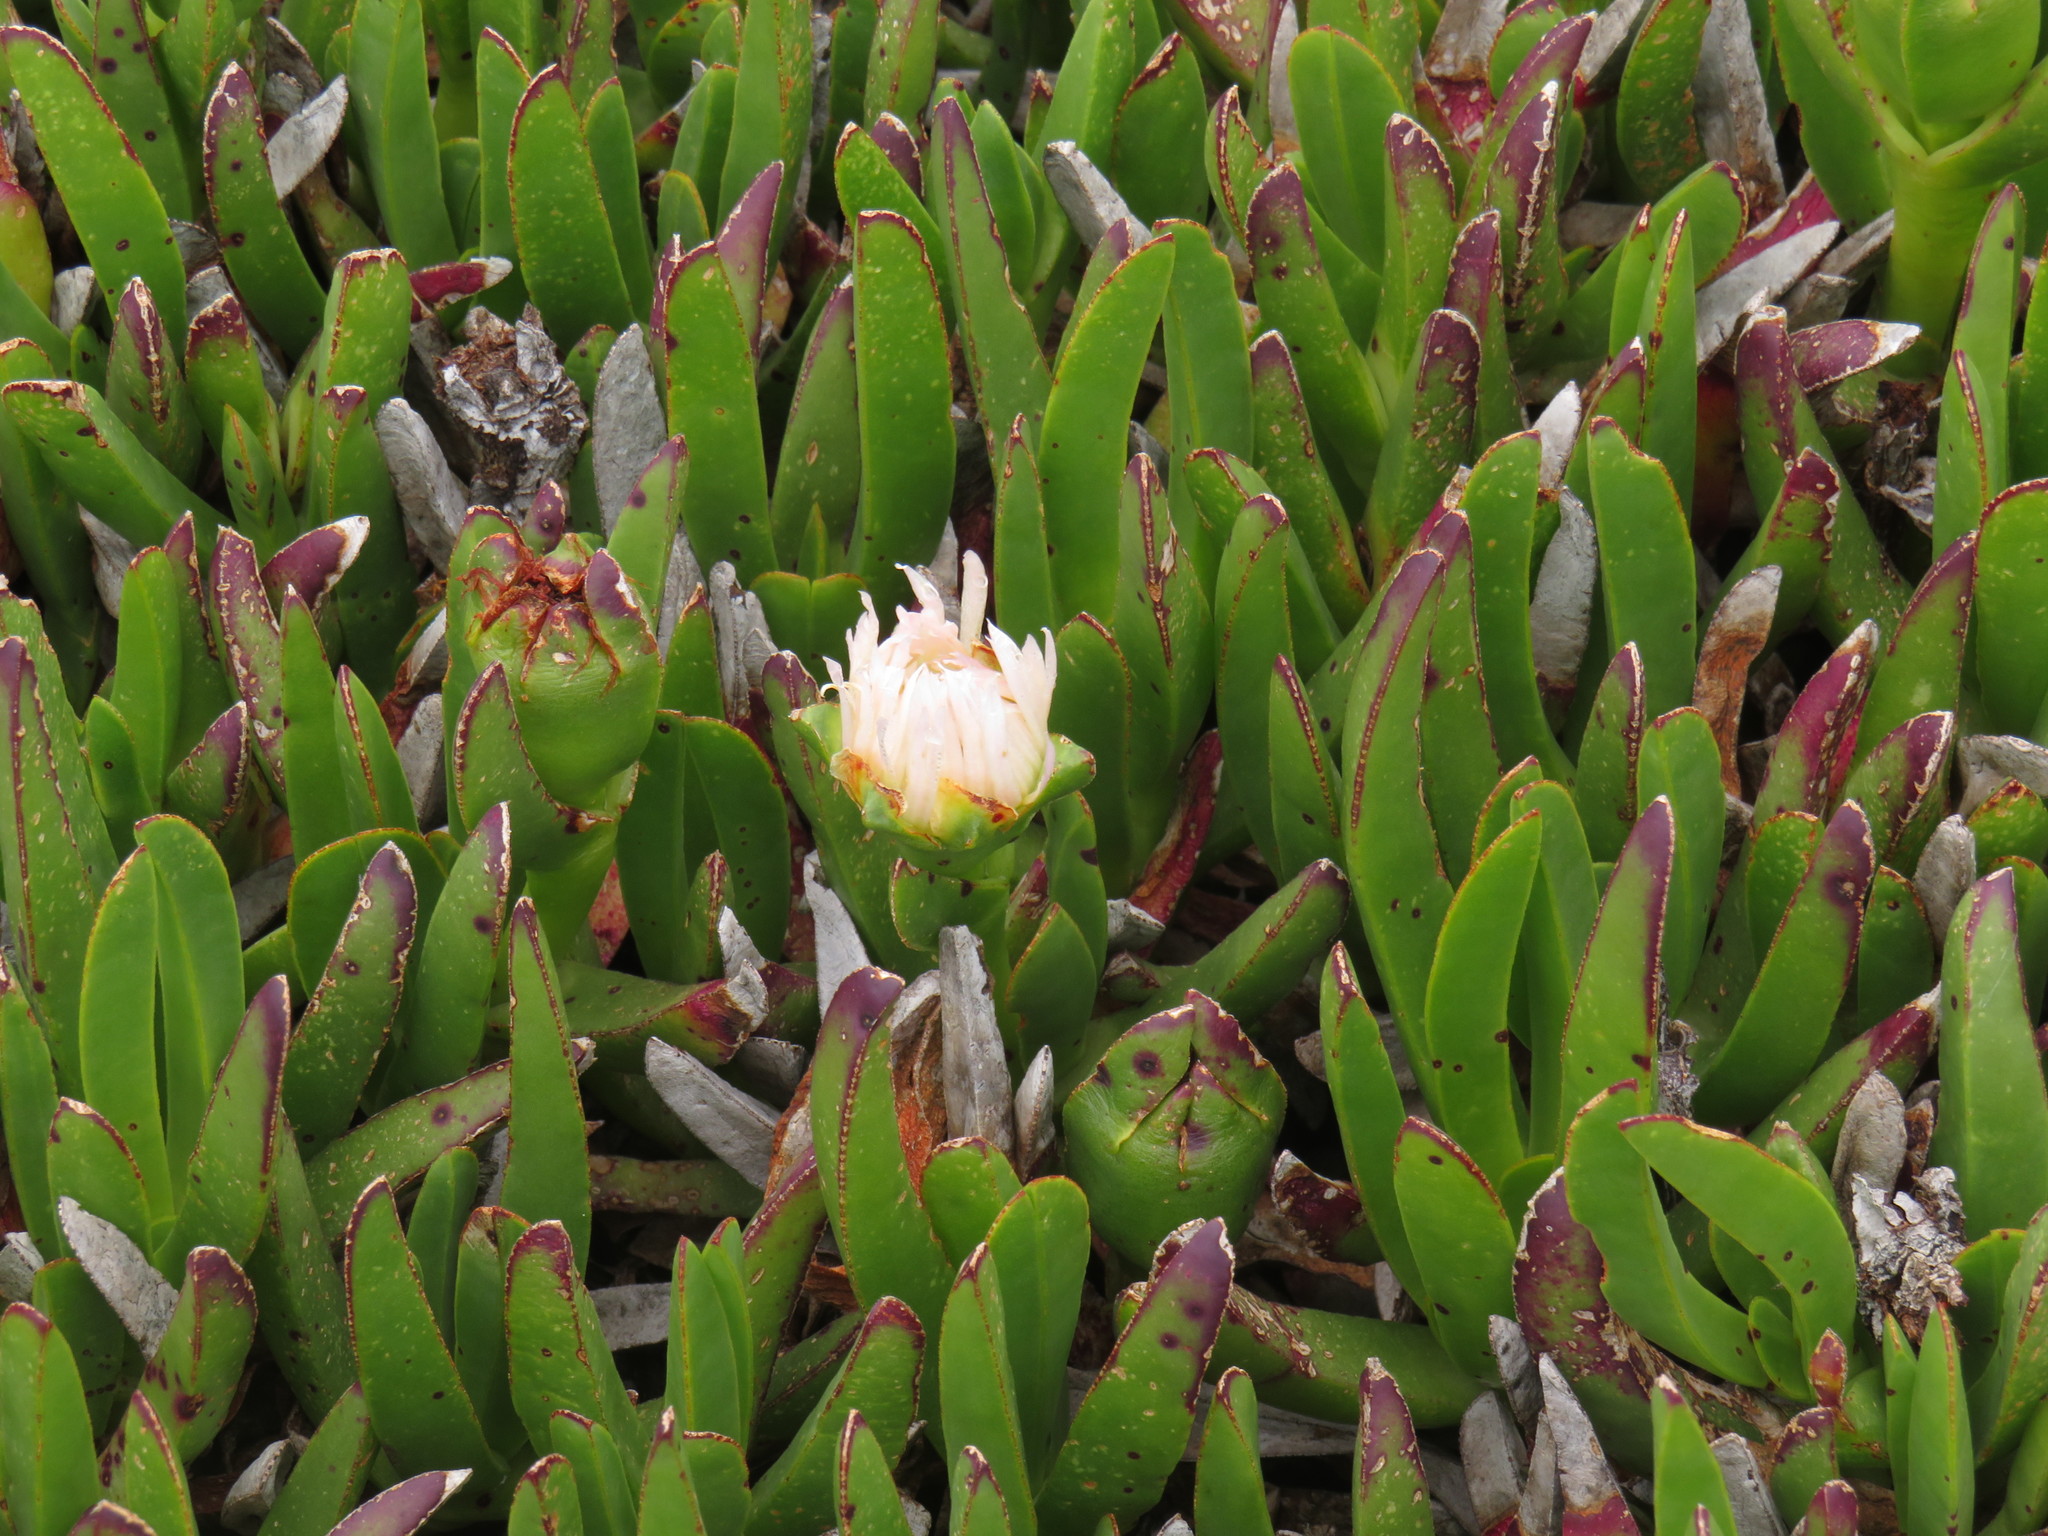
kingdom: Plantae
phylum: Tracheophyta
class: Magnoliopsida
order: Caryophyllales
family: Aizoaceae
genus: Carpobrotus
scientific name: Carpobrotus edulis
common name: Hottentot-fig
